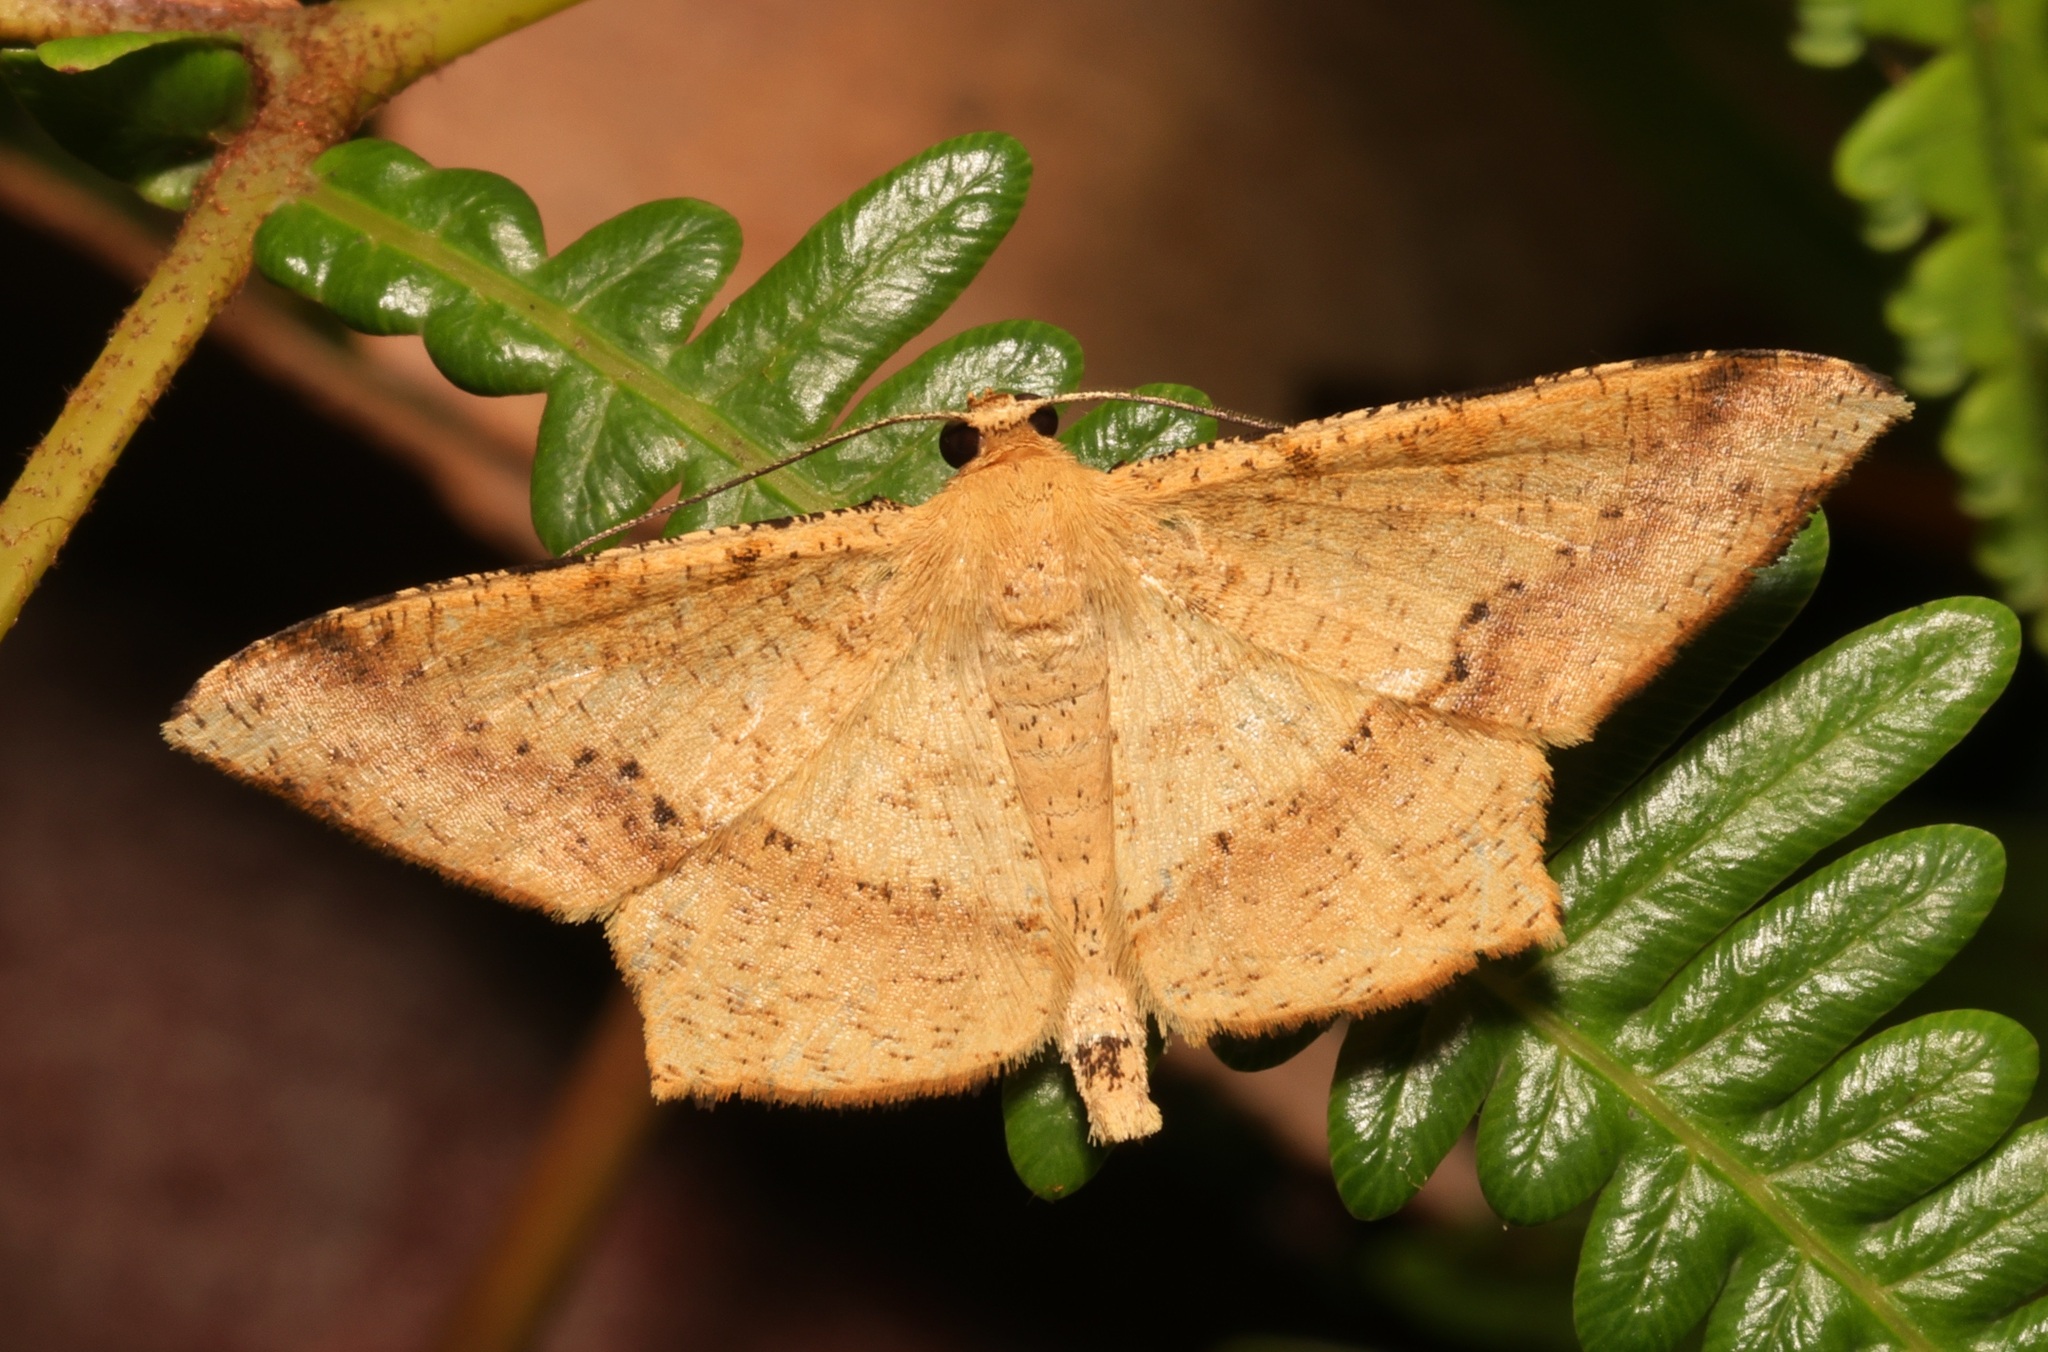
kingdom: Animalia
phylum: Arthropoda
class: Insecta
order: Lepidoptera
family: Geometridae
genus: Krananda
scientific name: Krananda falcata
